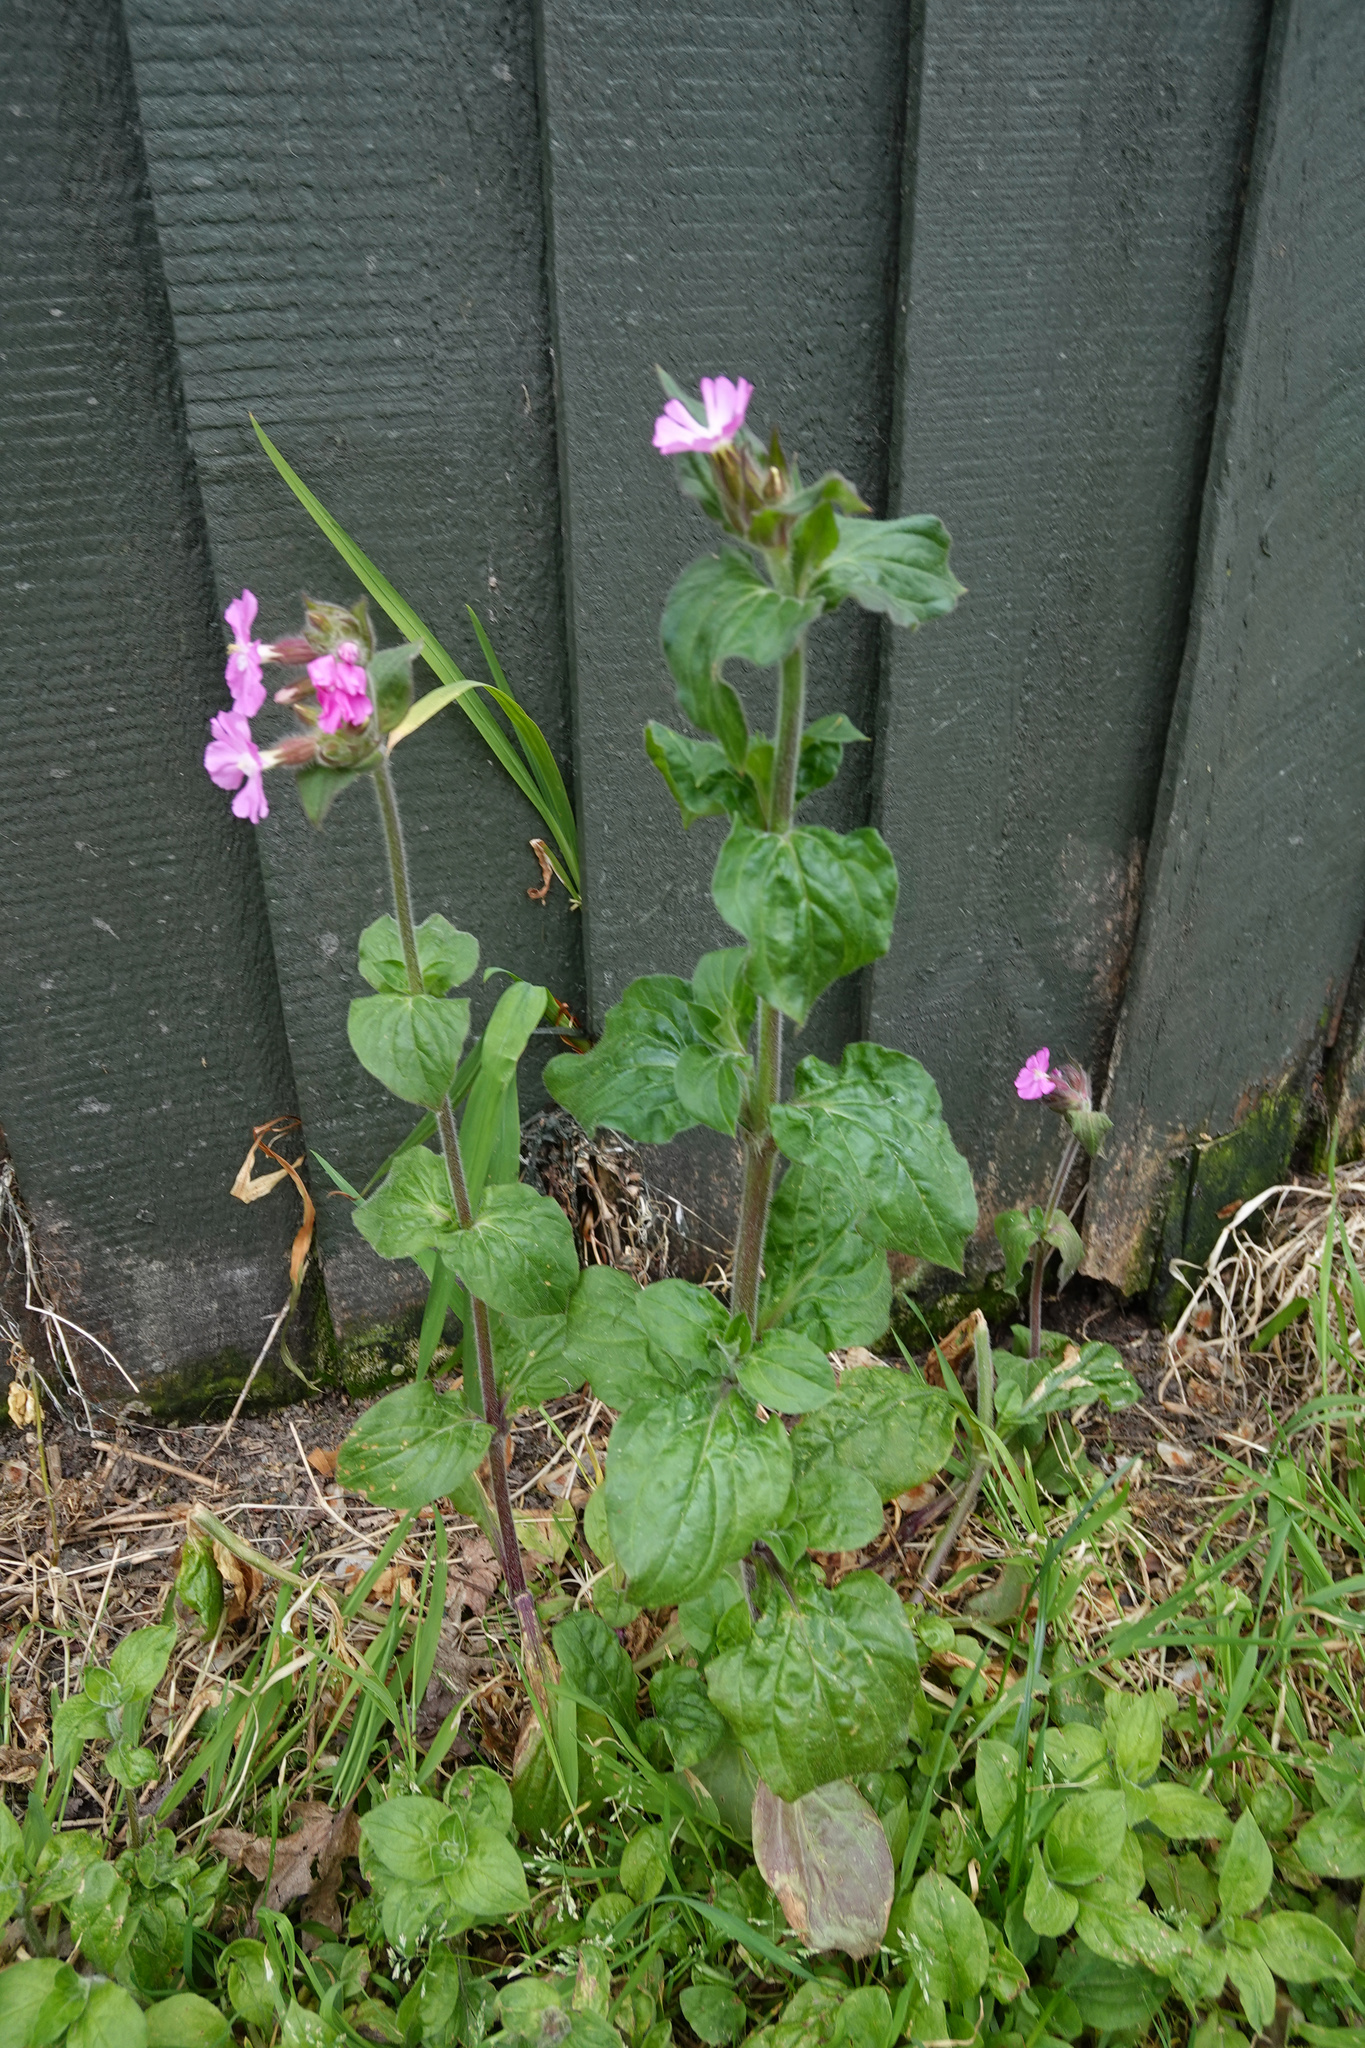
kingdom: Plantae
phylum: Tracheophyta
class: Magnoliopsida
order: Caryophyllales
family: Caryophyllaceae
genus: Silene
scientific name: Silene dioica
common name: Red campion
